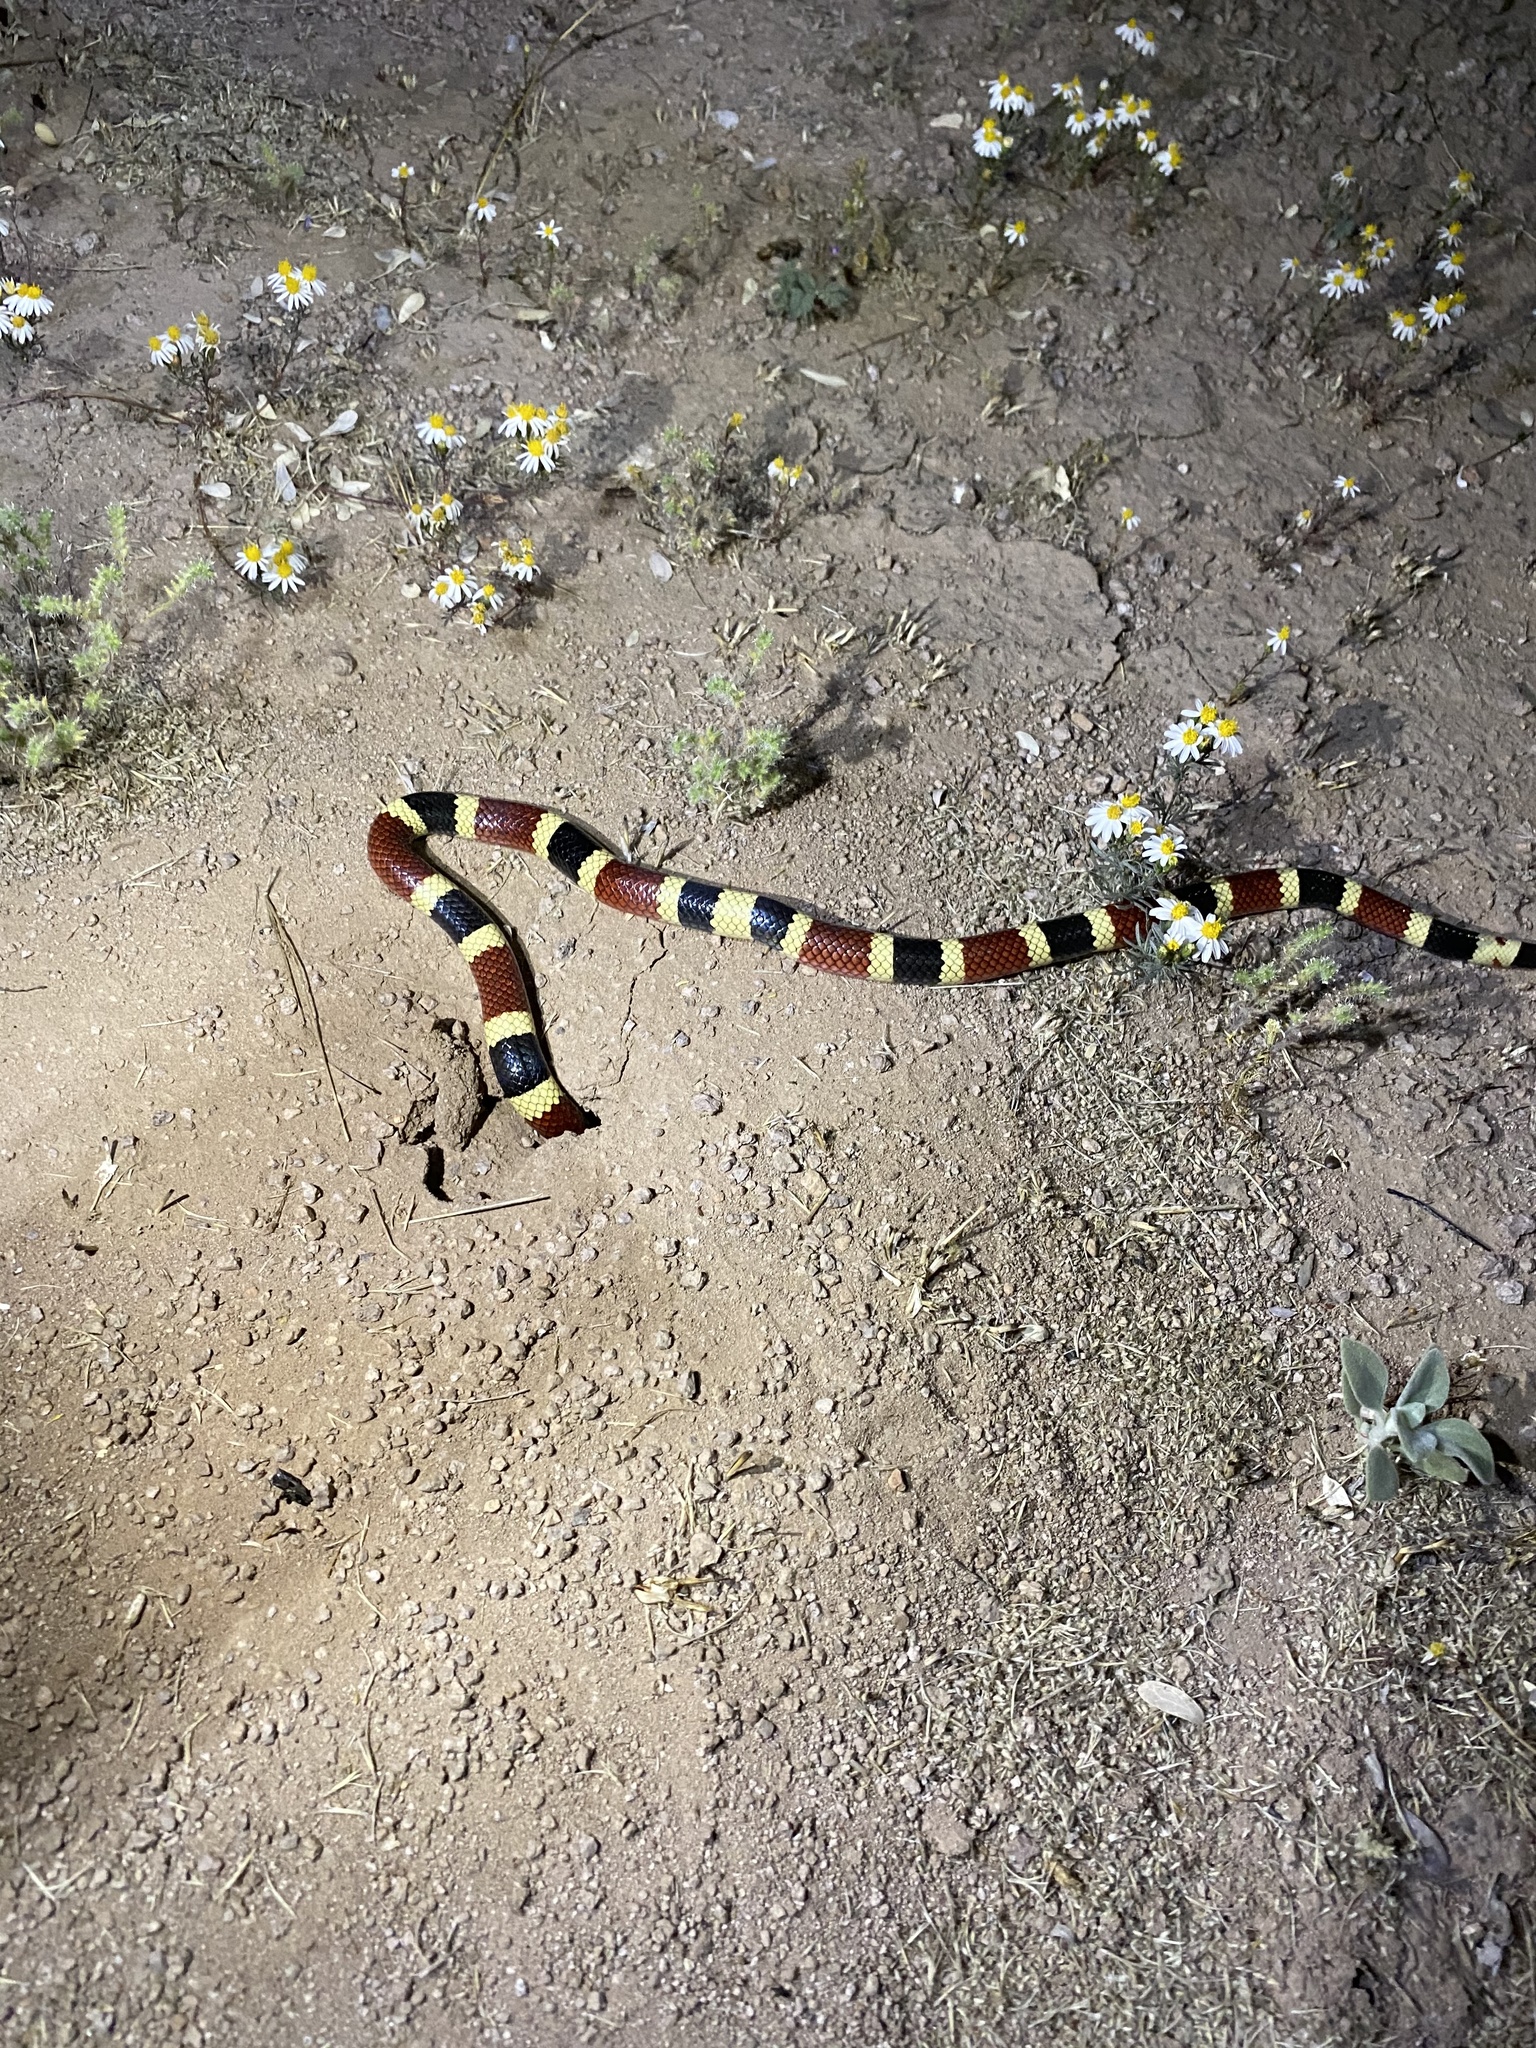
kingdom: Animalia
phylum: Chordata
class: Squamata
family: Elapidae
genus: Micruroides
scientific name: Micruroides euryxanthus
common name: Western coral snake
